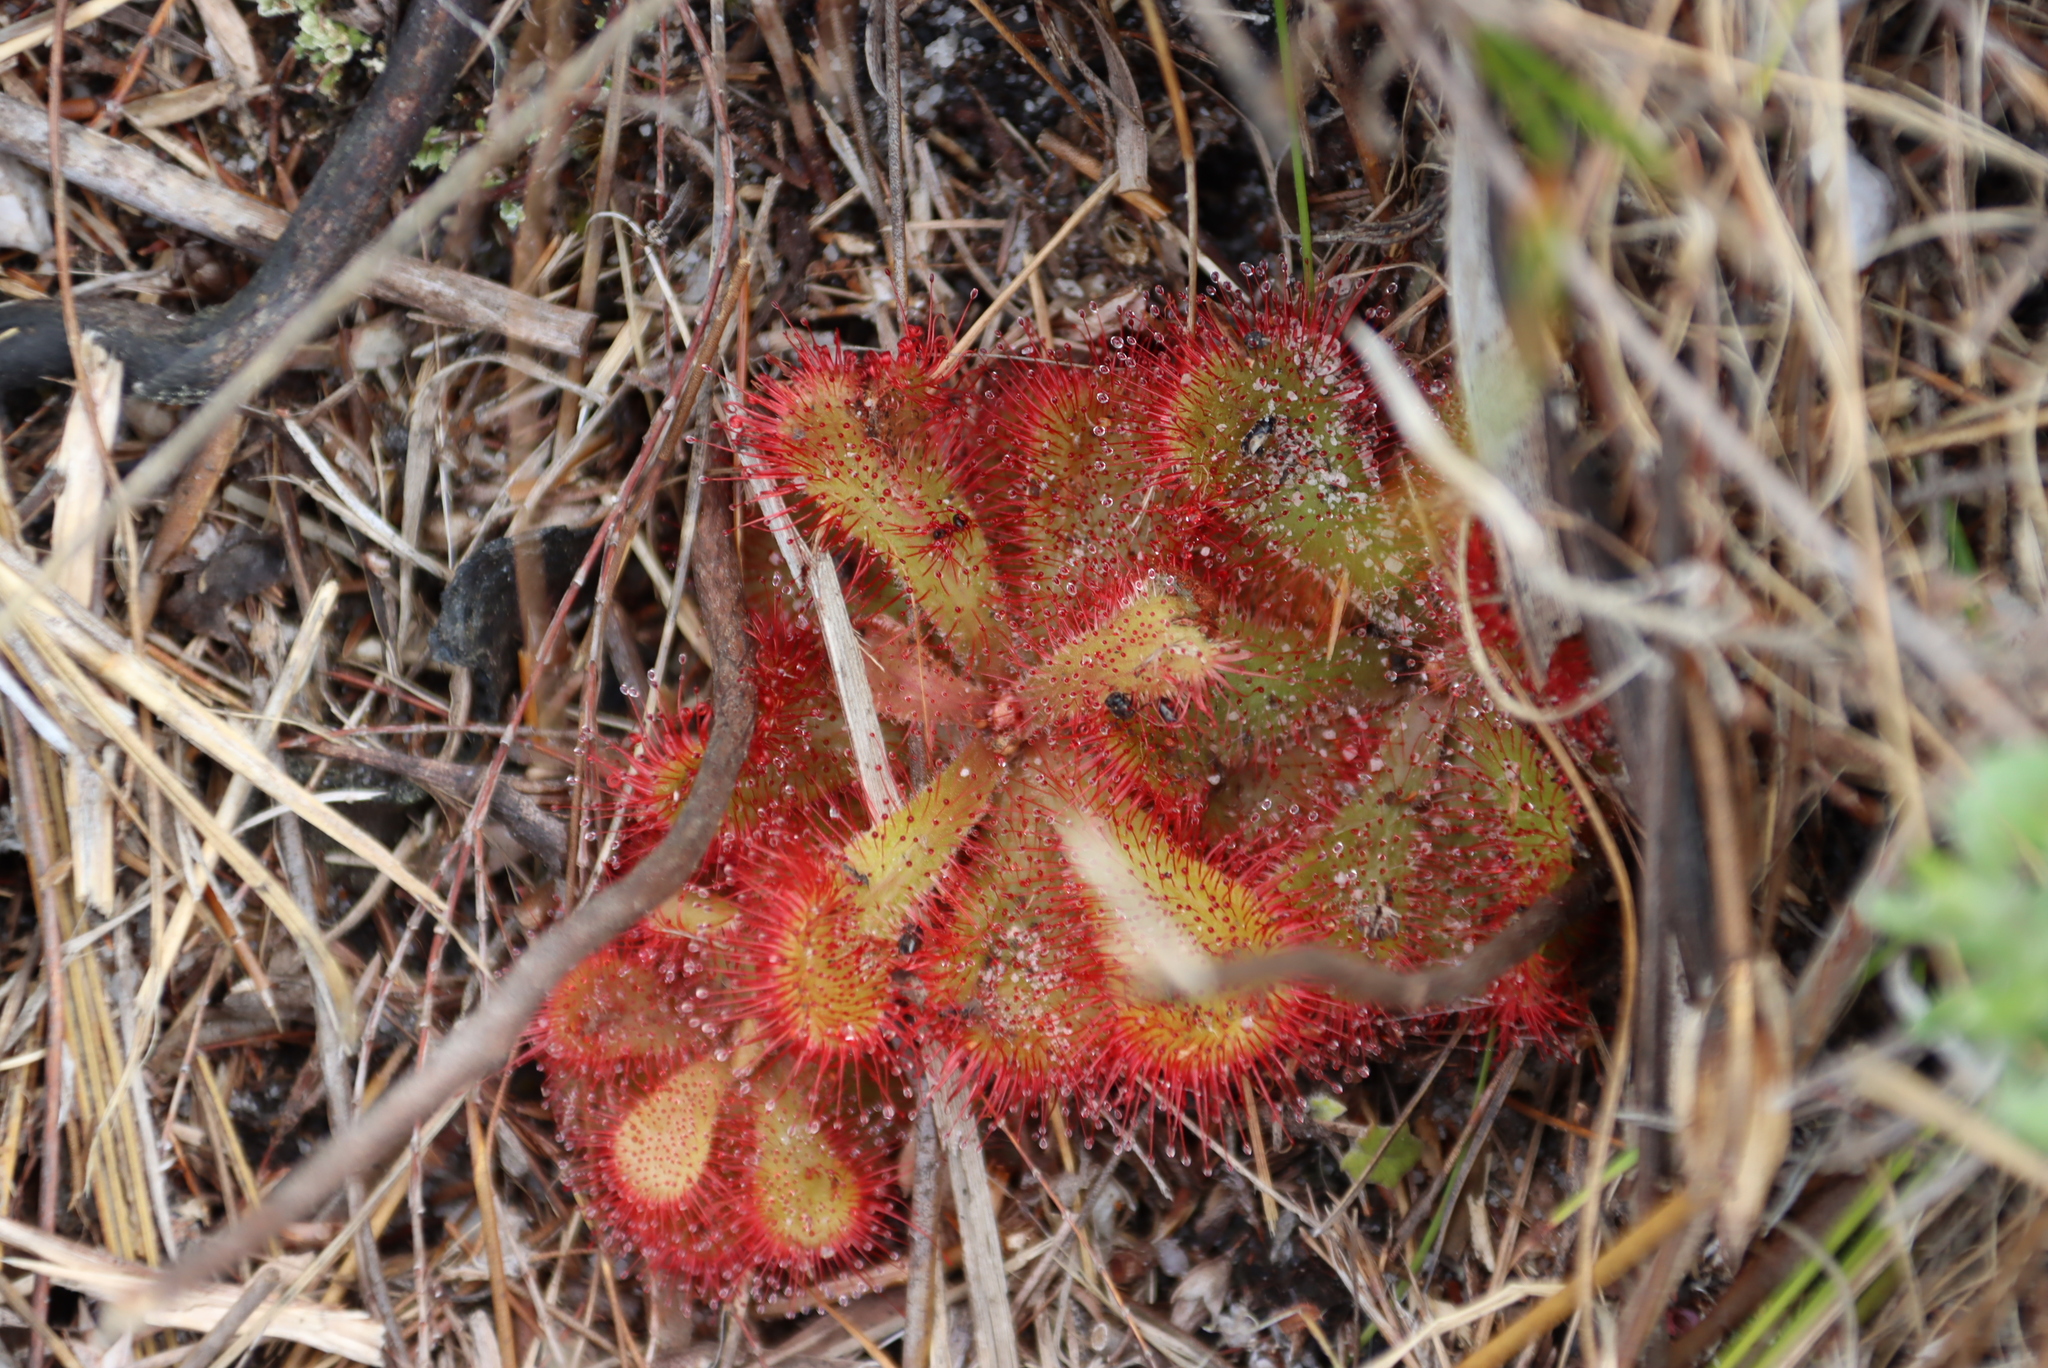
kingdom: Plantae
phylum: Tracheophyta
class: Magnoliopsida
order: Caryophyllales
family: Droseraceae
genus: Drosera
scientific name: Drosera cuneifolia
